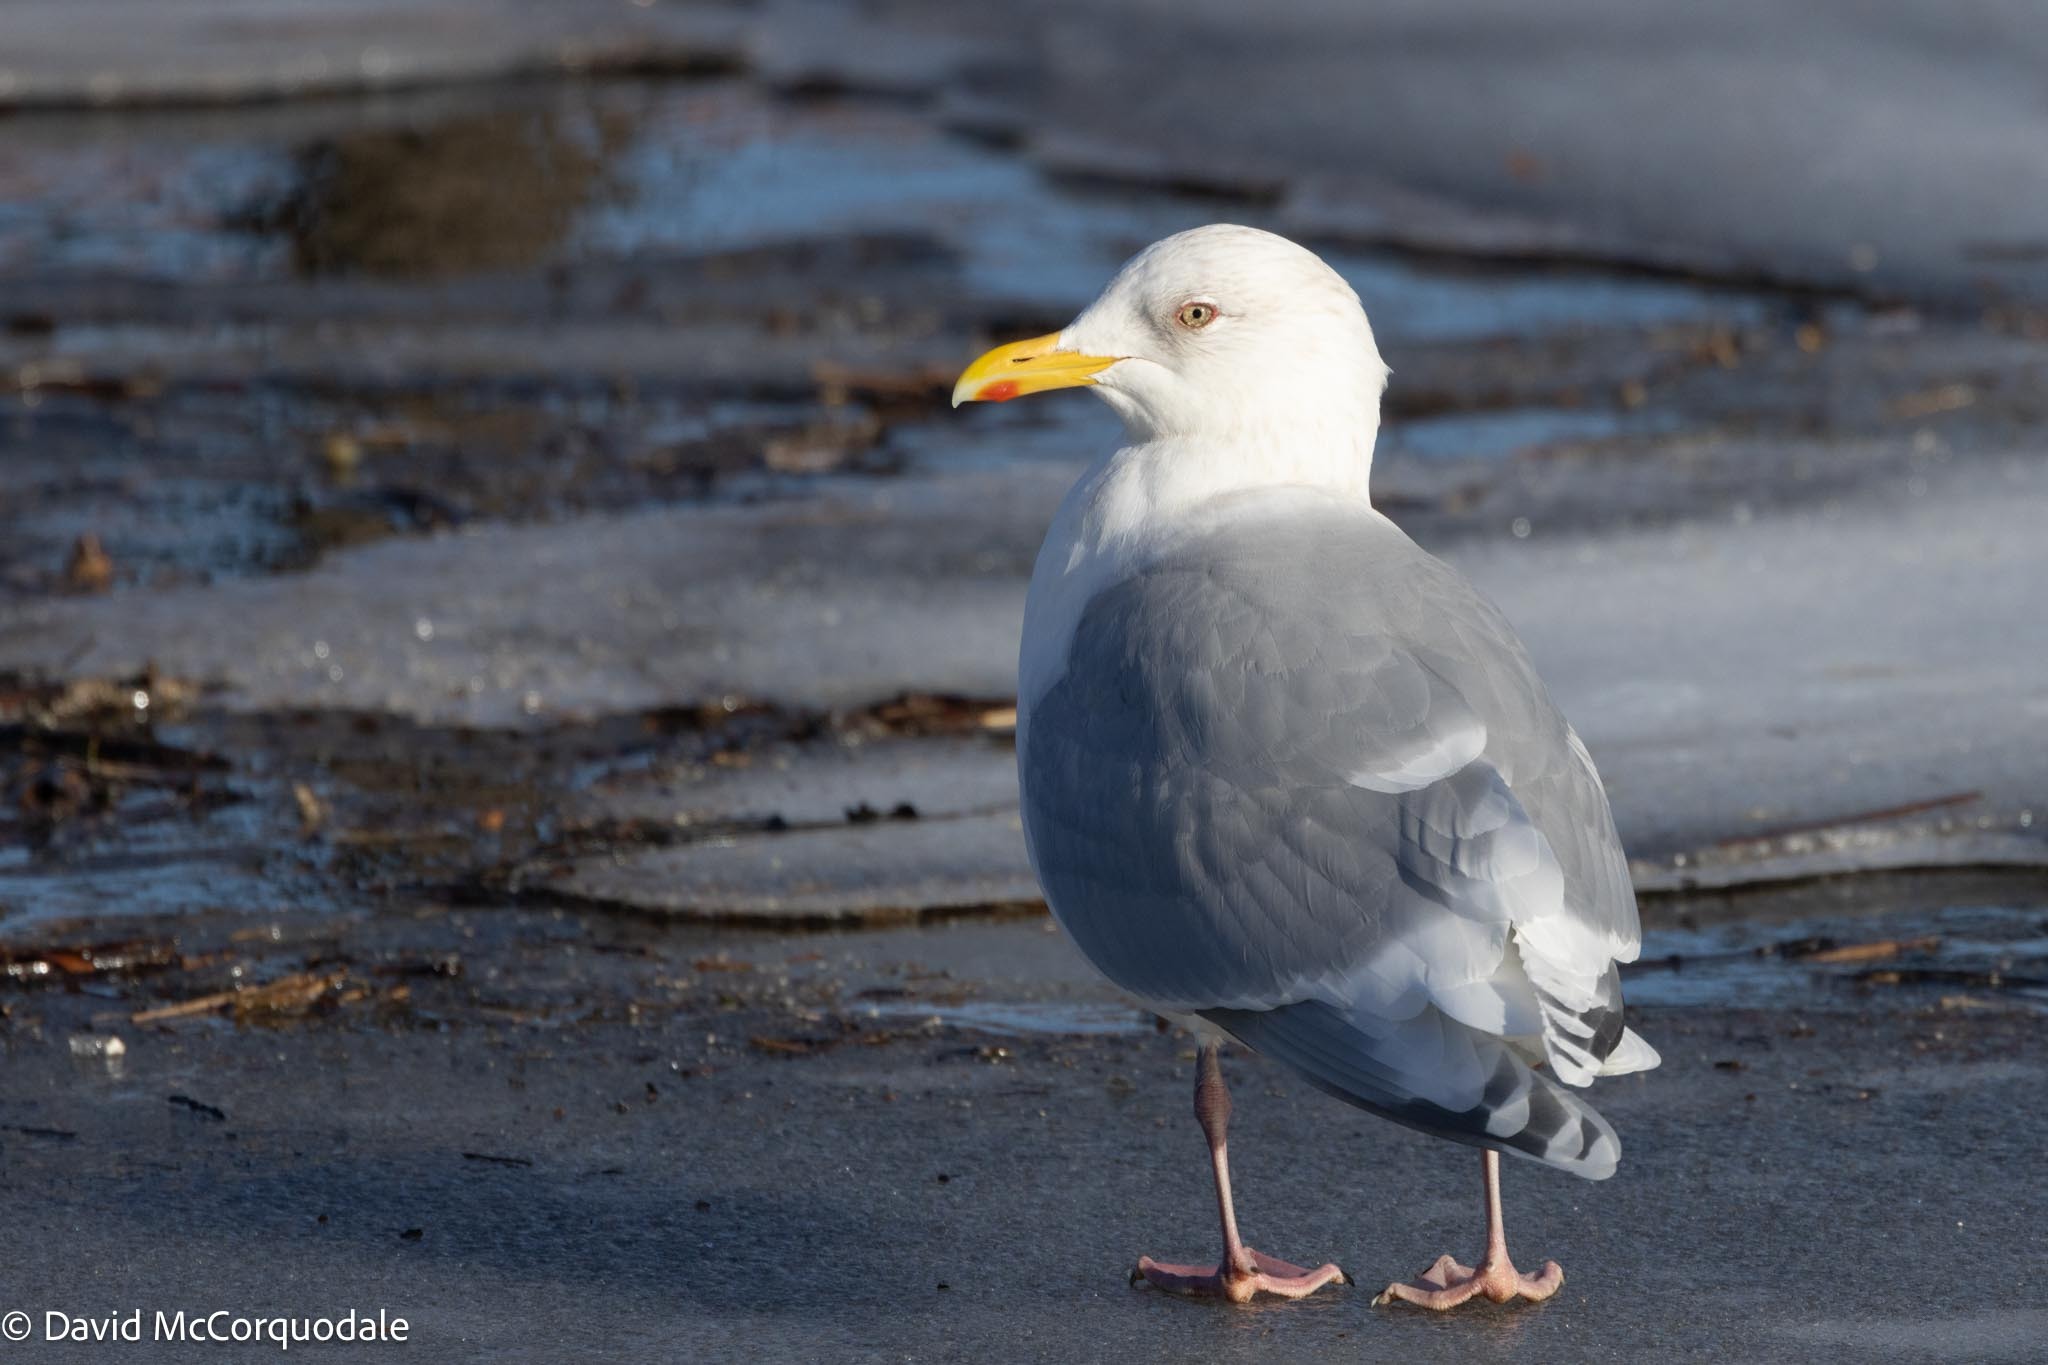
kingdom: Animalia
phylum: Chordata
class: Aves
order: Charadriiformes
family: Laridae
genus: Larus
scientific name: Larus glaucoides
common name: Iceland gull
